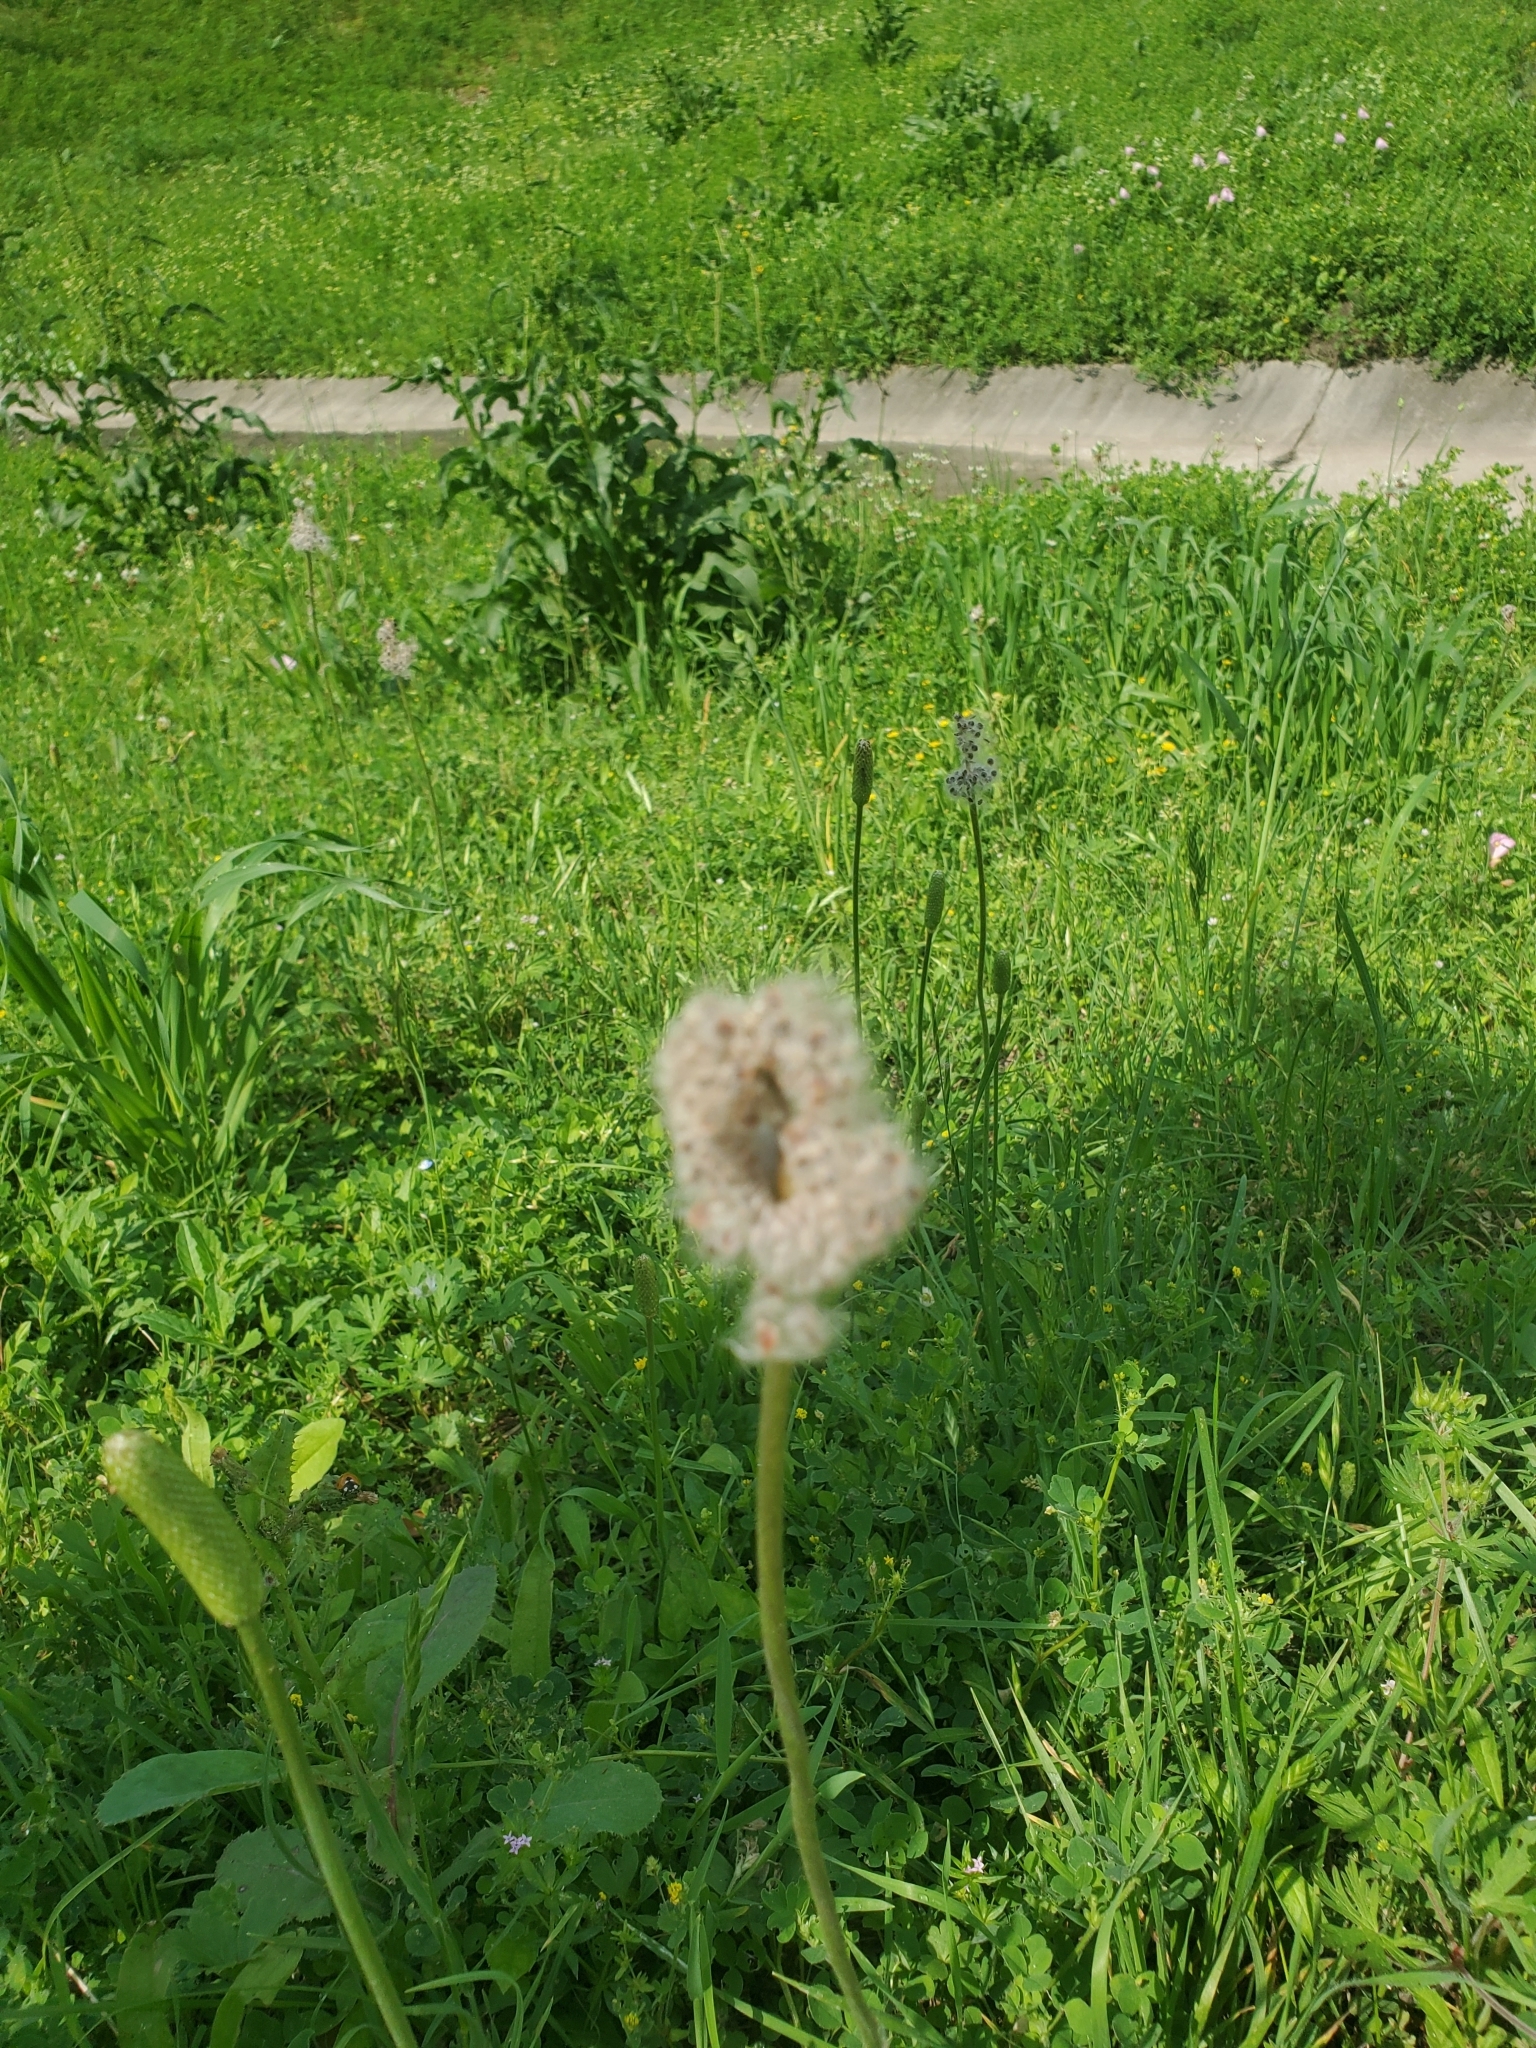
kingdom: Plantae
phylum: Tracheophyta
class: Magnoliopsida
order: Ranunculales
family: Ranunculaceae
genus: Anemone
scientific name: Anemone berlandieri
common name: Ten-petal anemone
